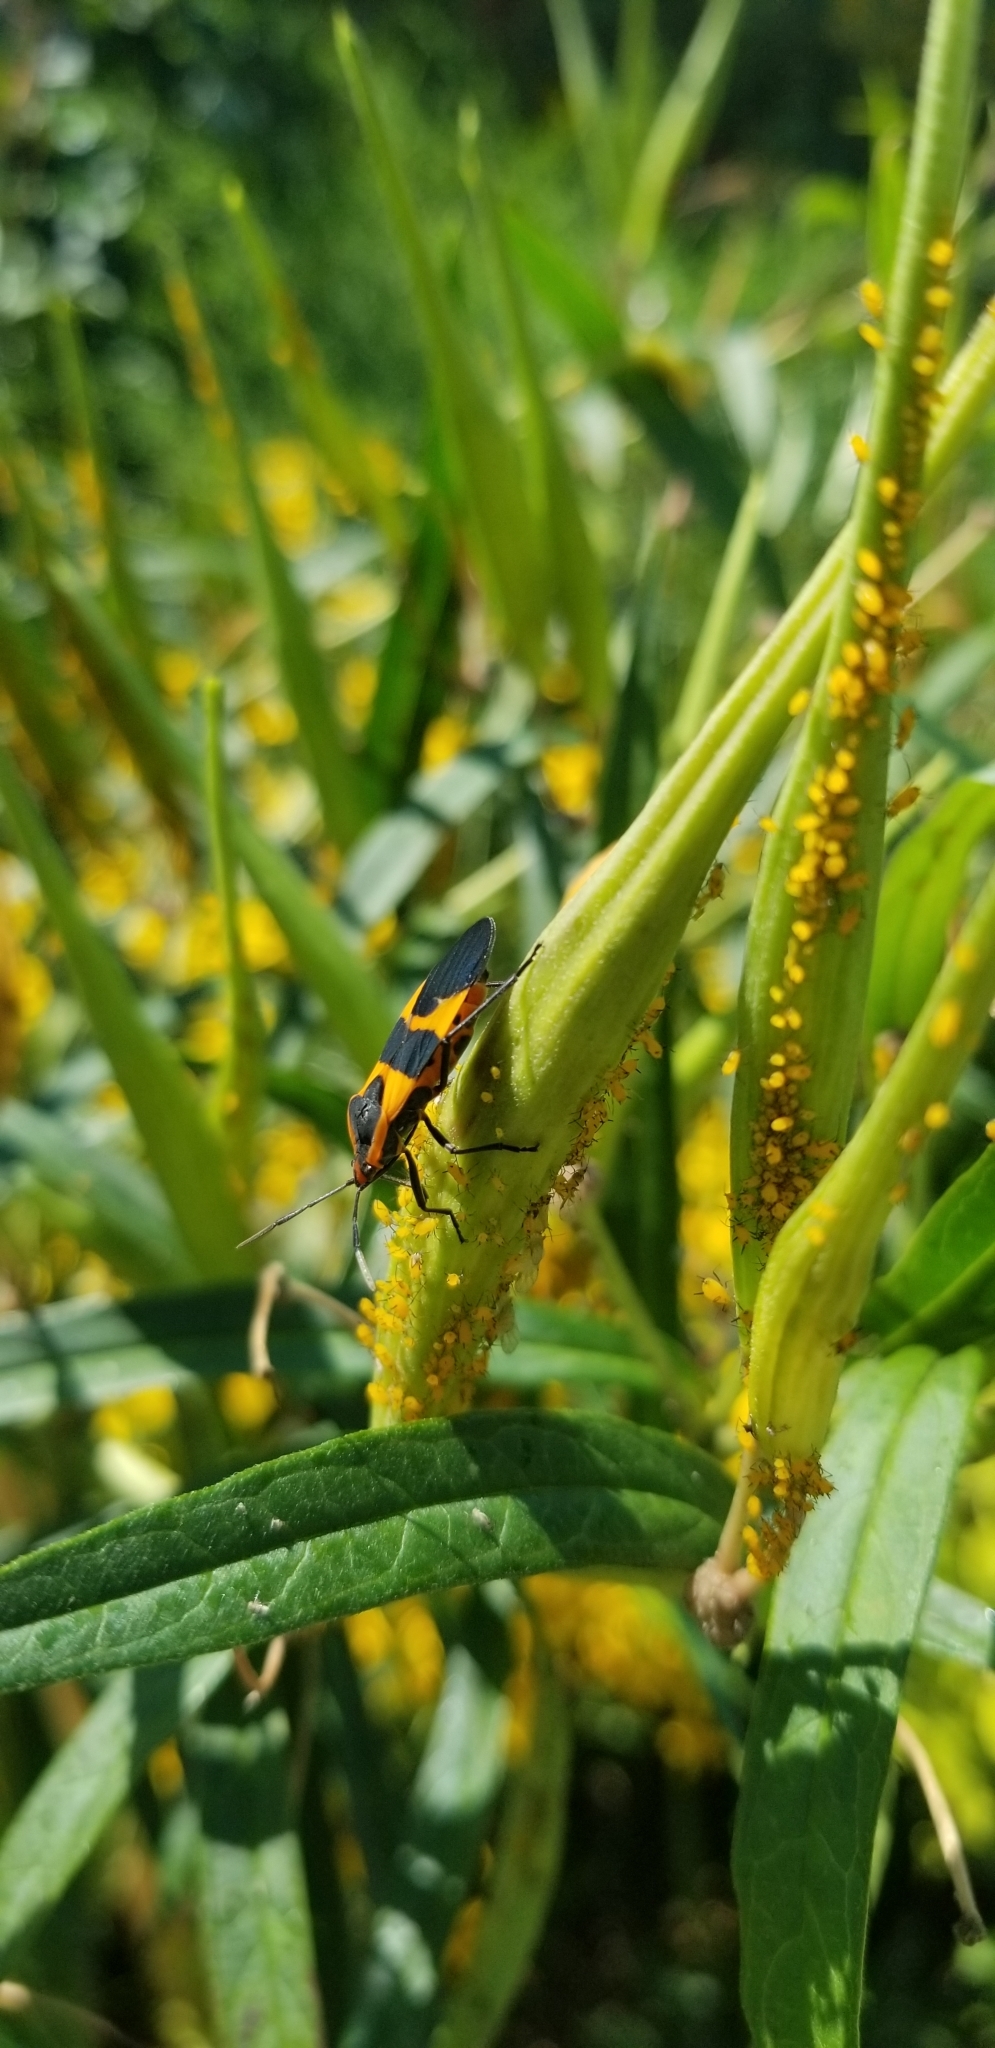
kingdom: Animalia
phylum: Arthropoda
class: Insecta
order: Hemiptera
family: Lygaeidae
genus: Oncopeltus
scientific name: Oncopeltus fasciatus
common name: Large milkweed bug
